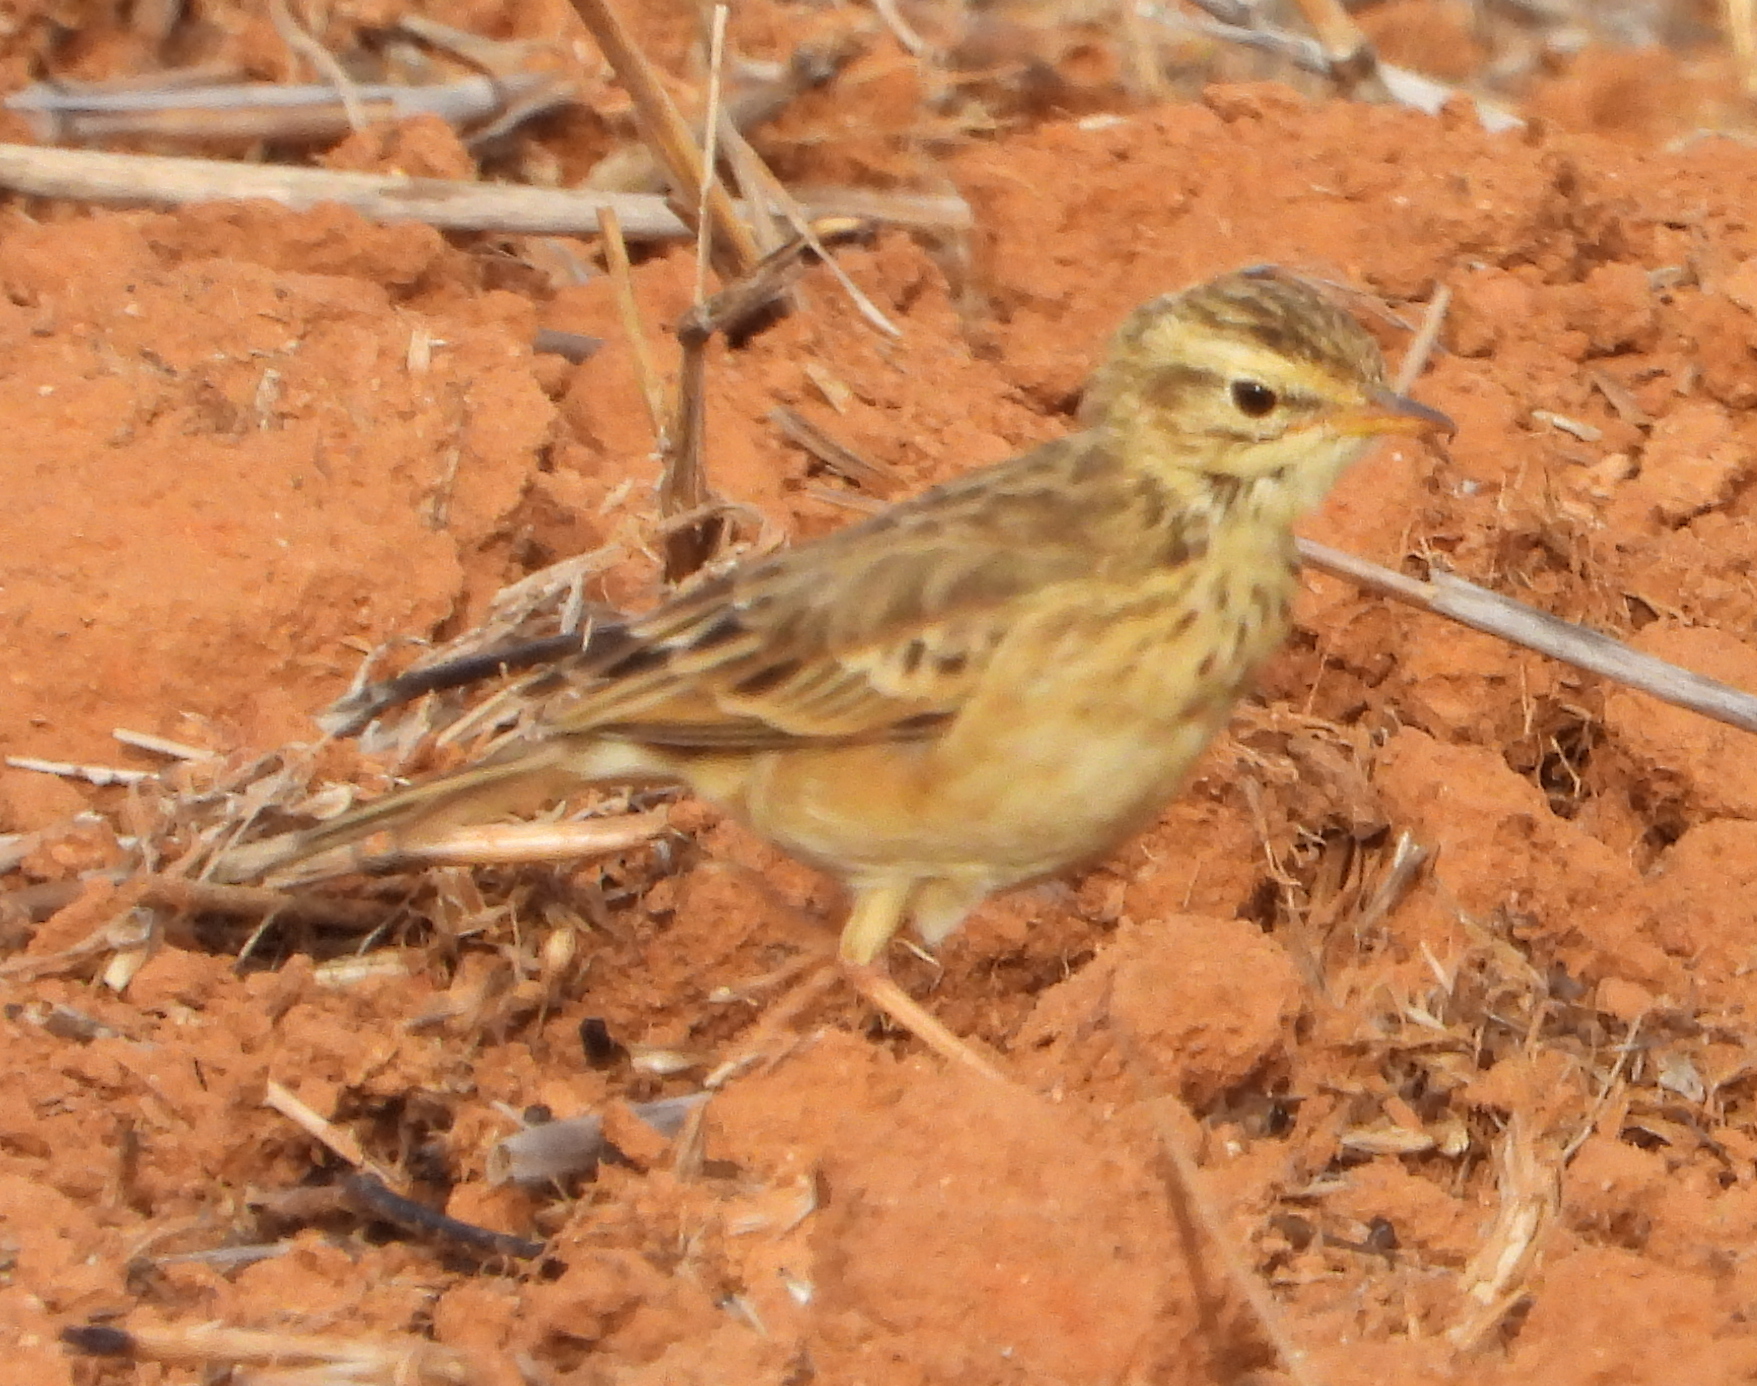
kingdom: Animalia
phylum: Chordata
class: Aves
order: Passeriformes
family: Motacillidae
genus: Anthus
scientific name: Anthus cinnamomeus
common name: African pipit
